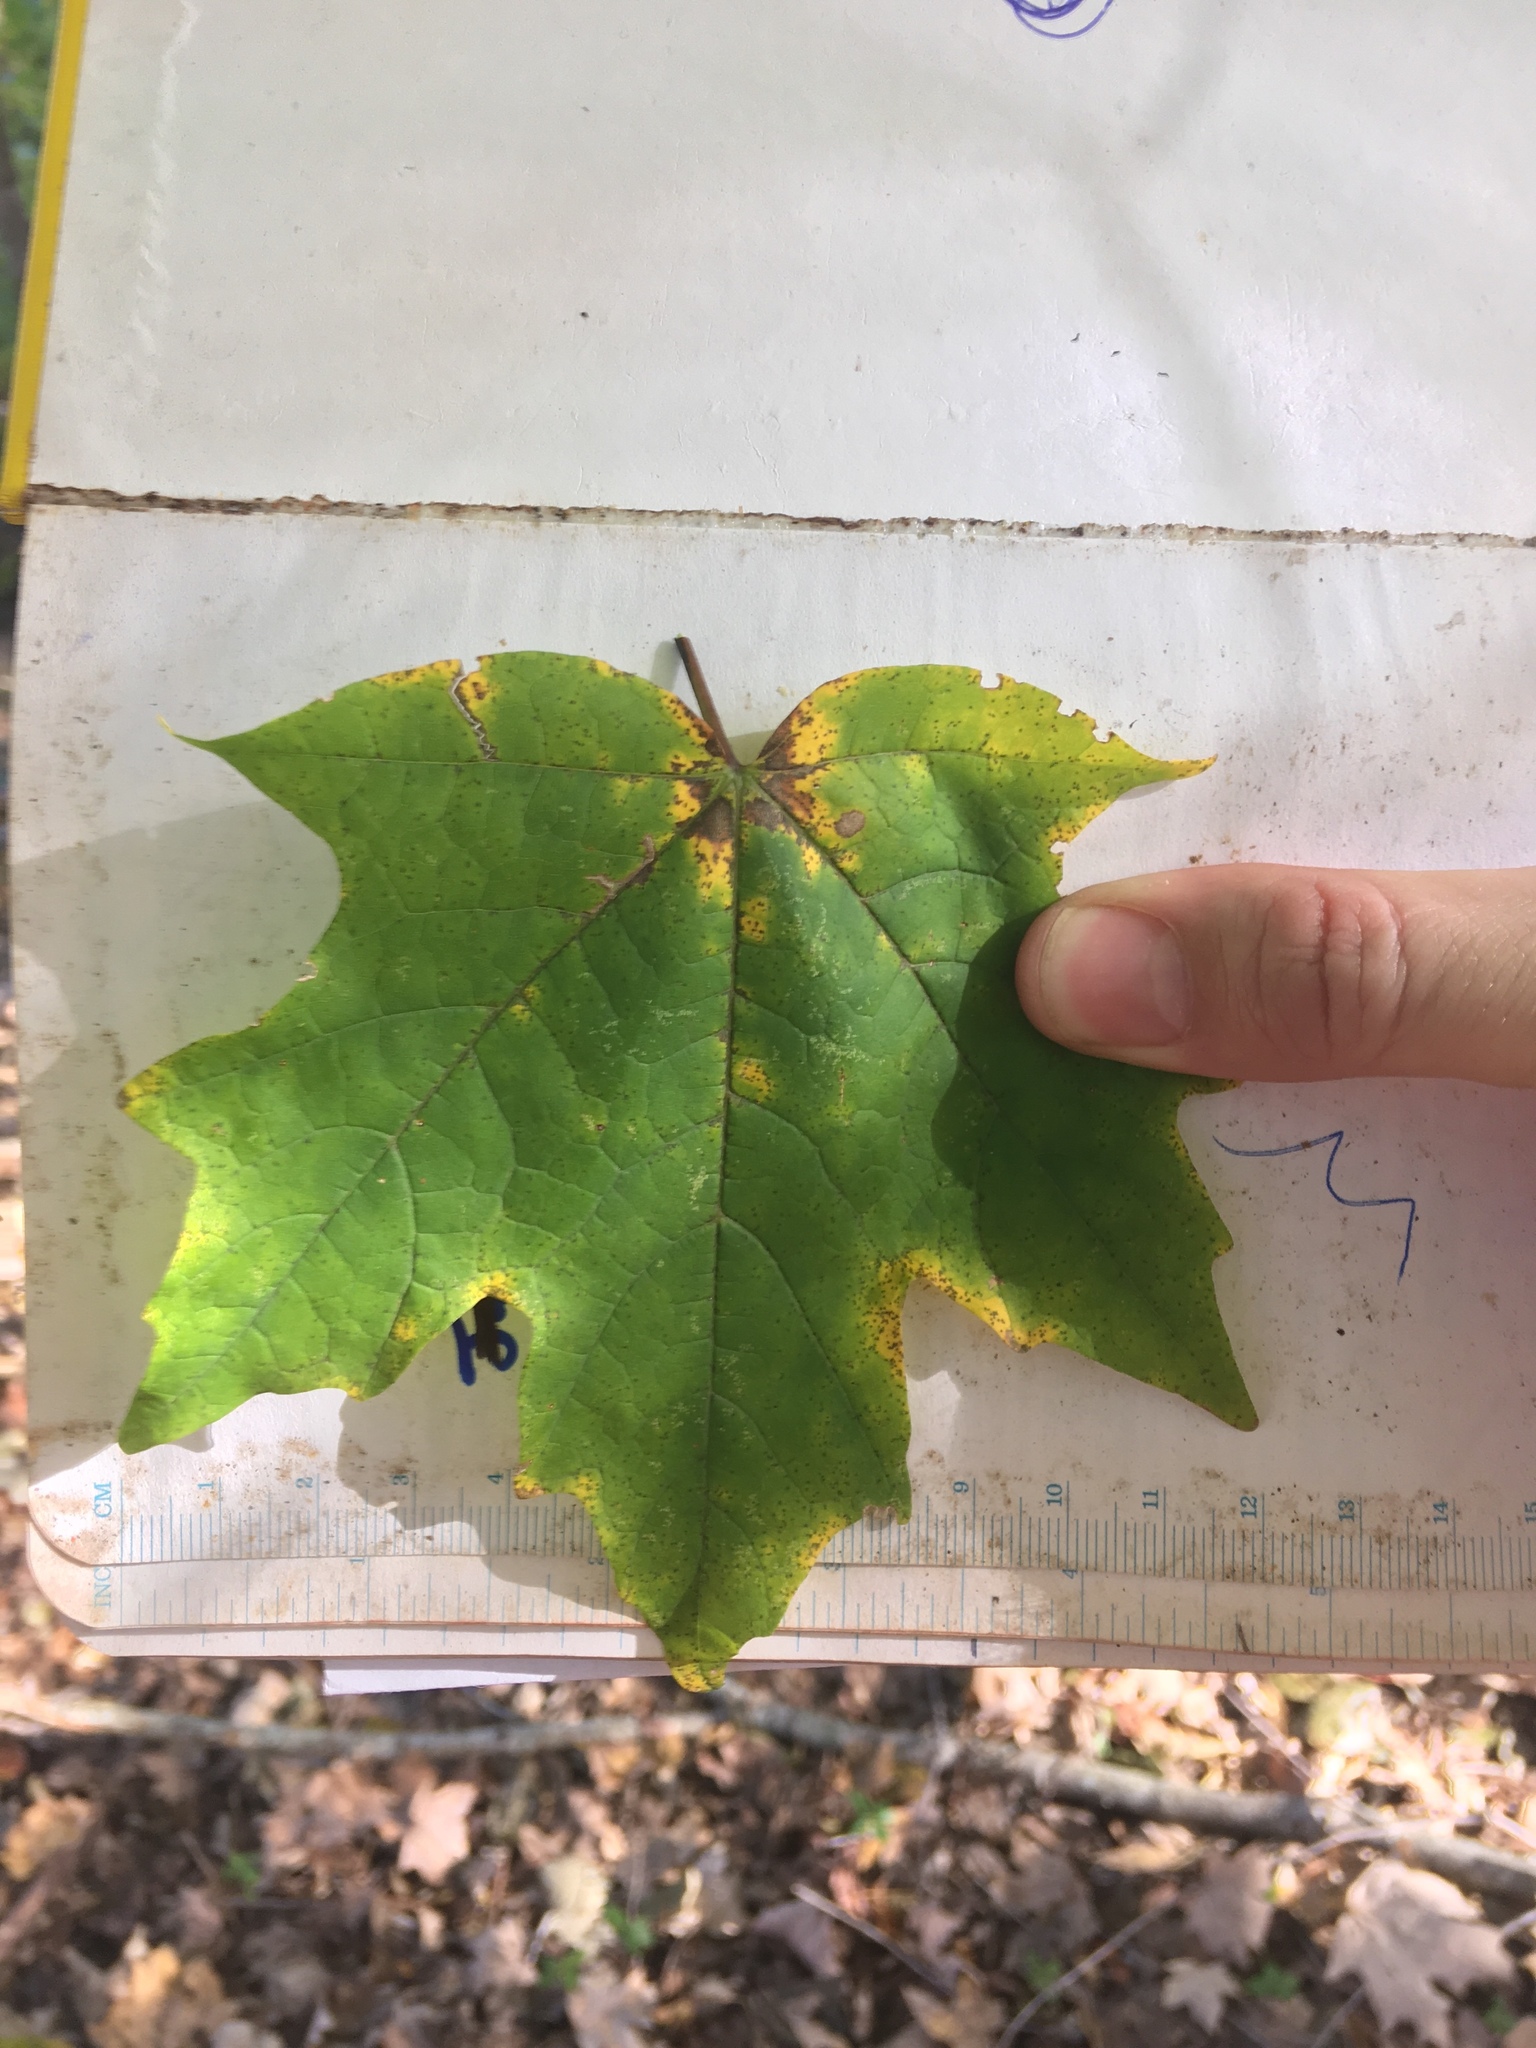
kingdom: Plantae
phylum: Tracheophyta
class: Magnoliopsida
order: Sapindales
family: Sapindaceae
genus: Acer
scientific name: Acer saccharum
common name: Sugar maple
